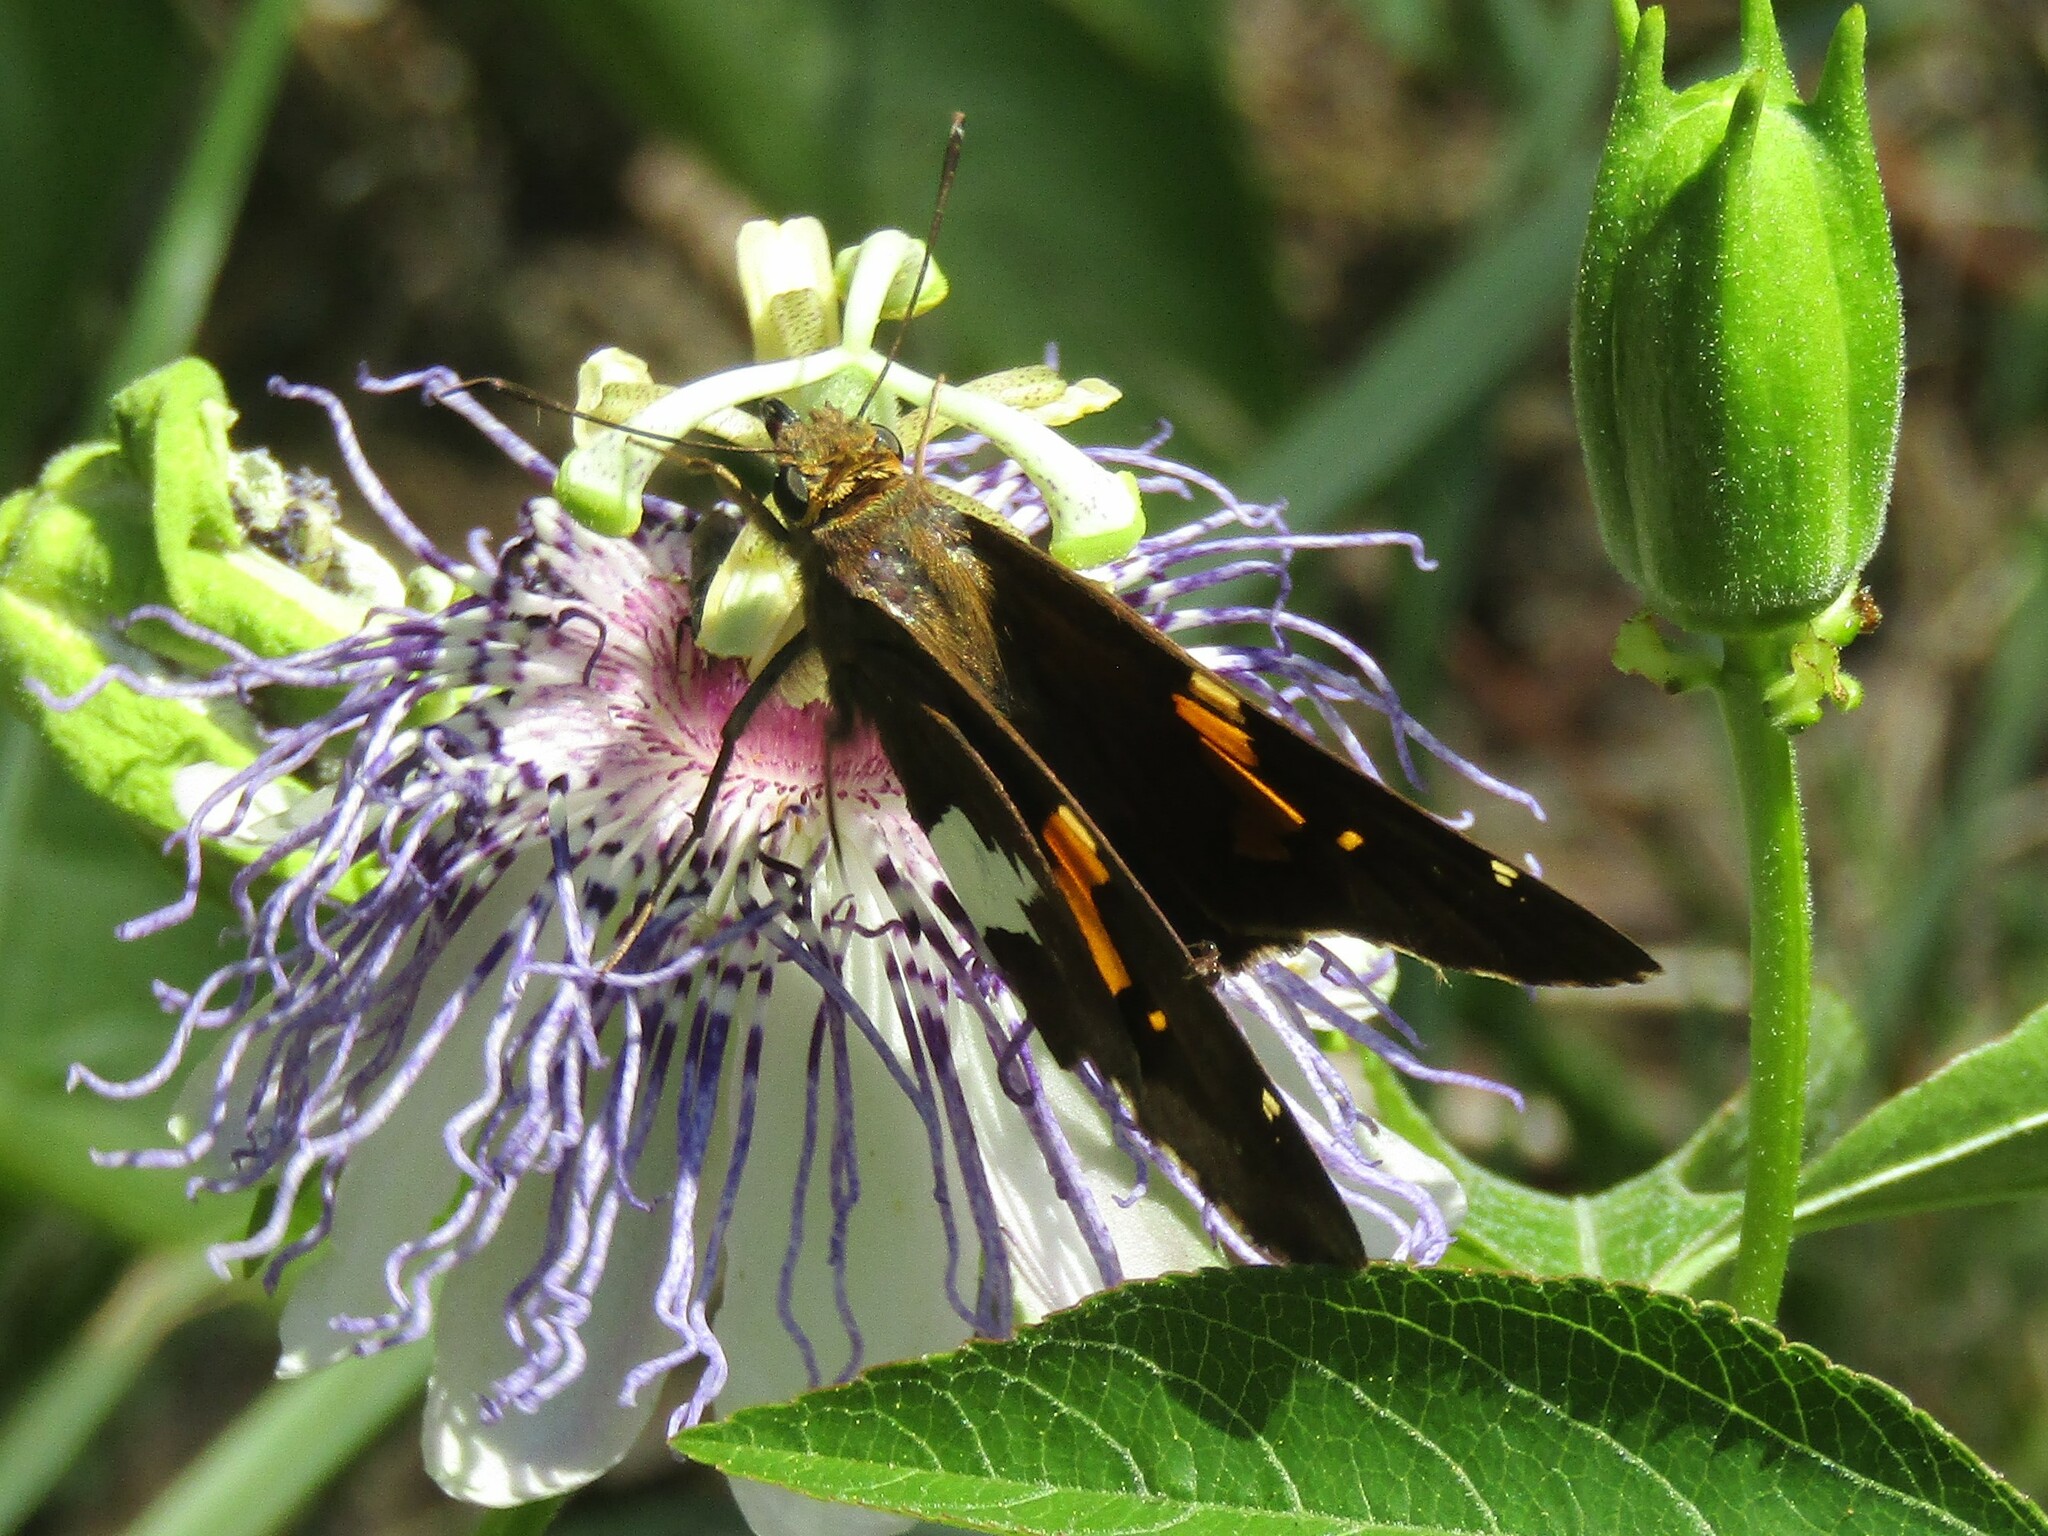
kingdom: Animalia
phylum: Arthropoda
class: Insecta
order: Lepidoptera
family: Hesperiidae
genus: Epargyreus
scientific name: Epargyreus clarus
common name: Silver-spotted skipper
